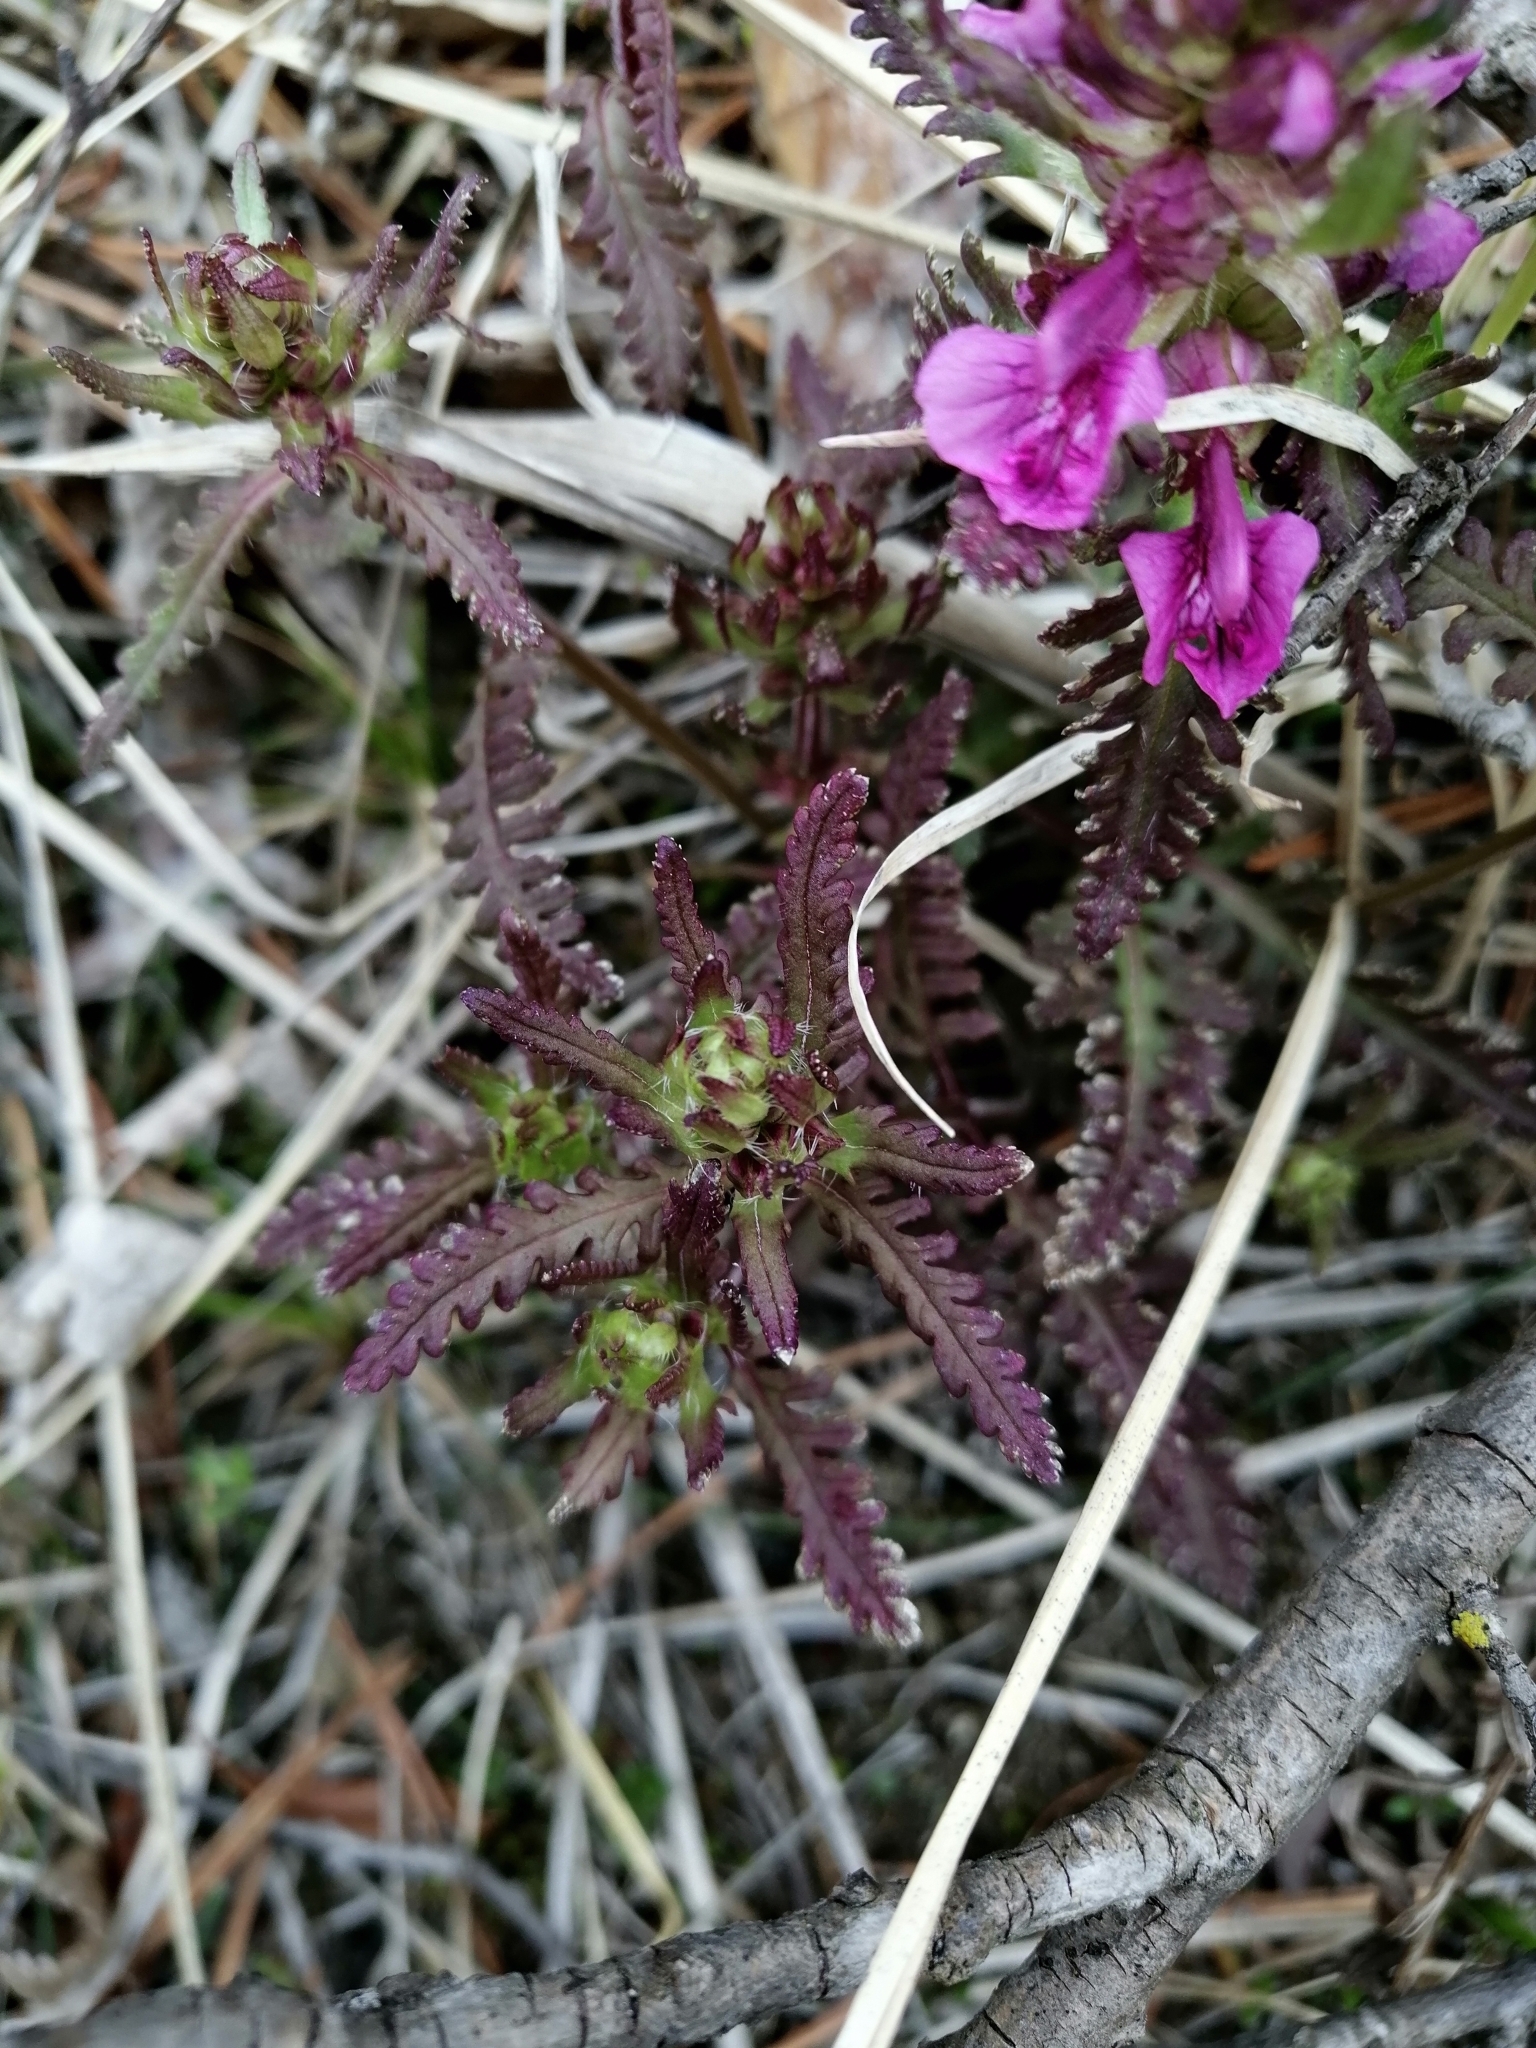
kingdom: Plantae
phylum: Tracheophyta
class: Magnoliopsida
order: Lamiales
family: Orobanchaceae
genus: Pedicularis
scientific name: Pedicularis verticillata
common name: Whorled lousewort
